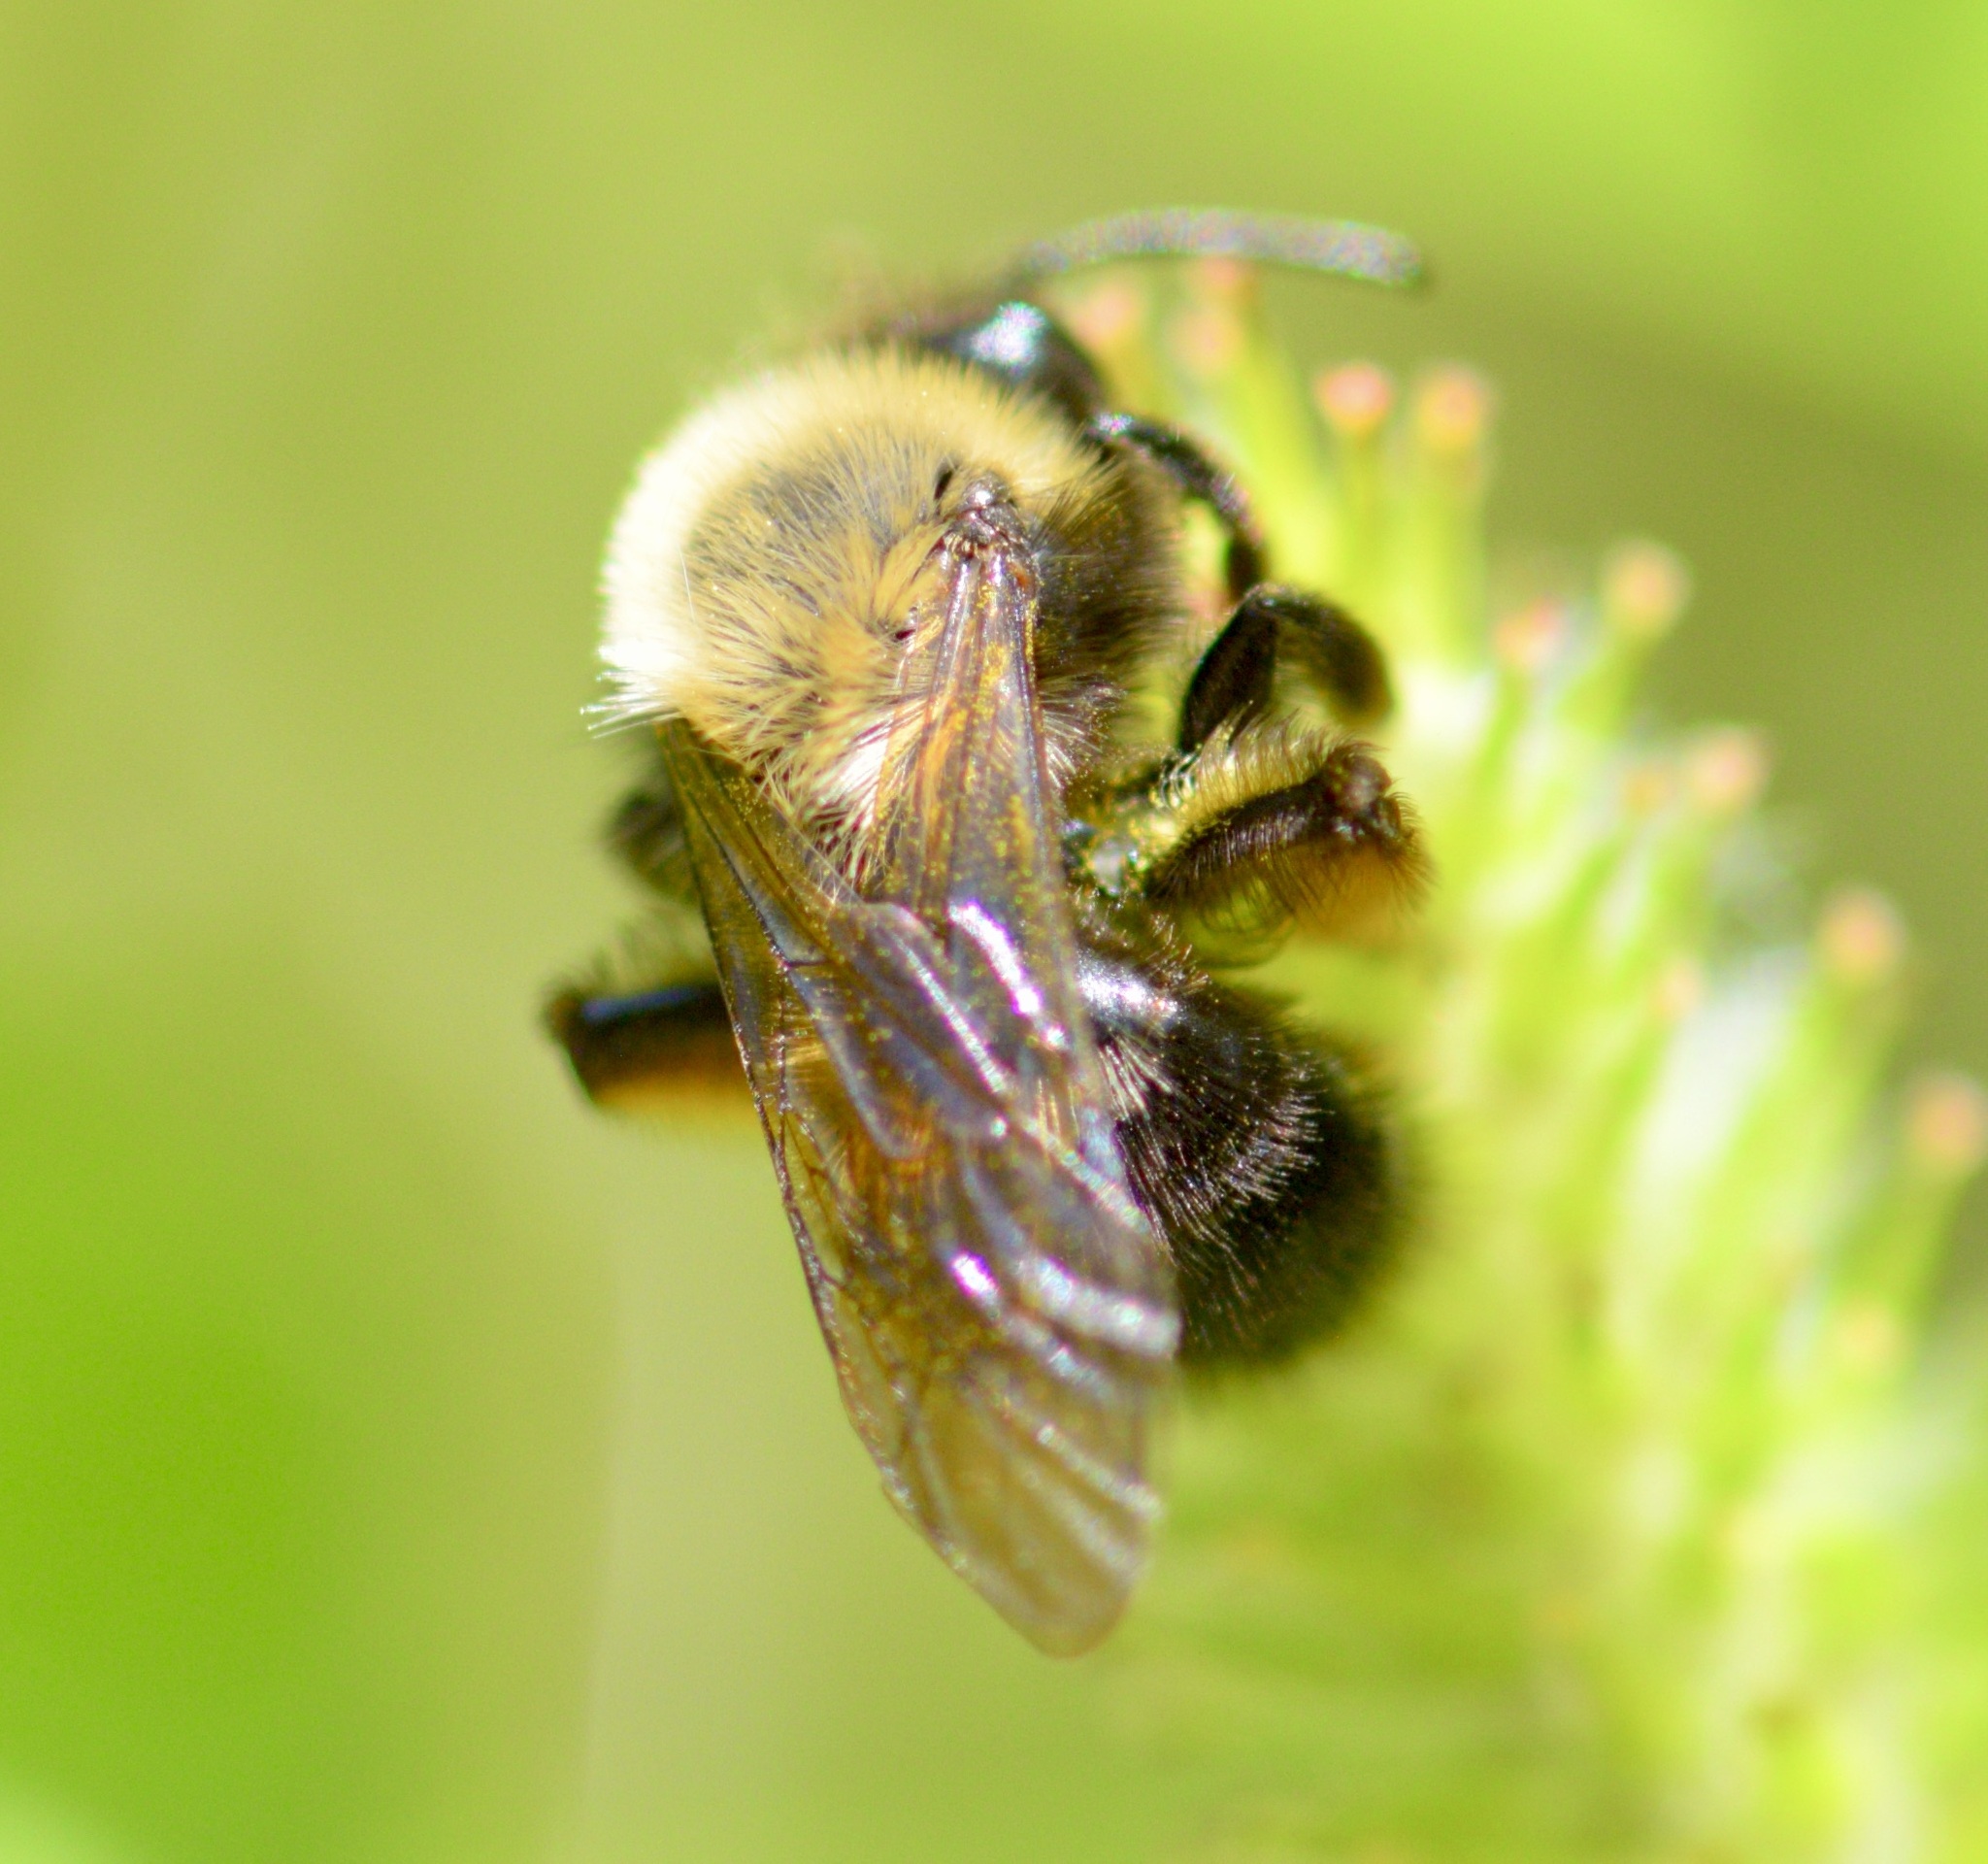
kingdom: Animalia
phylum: Arthropoda
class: Insecta
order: Hymenoptera
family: Andrenidae
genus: Andrena
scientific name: Andrena clarkella
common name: Clarke's mining bee
